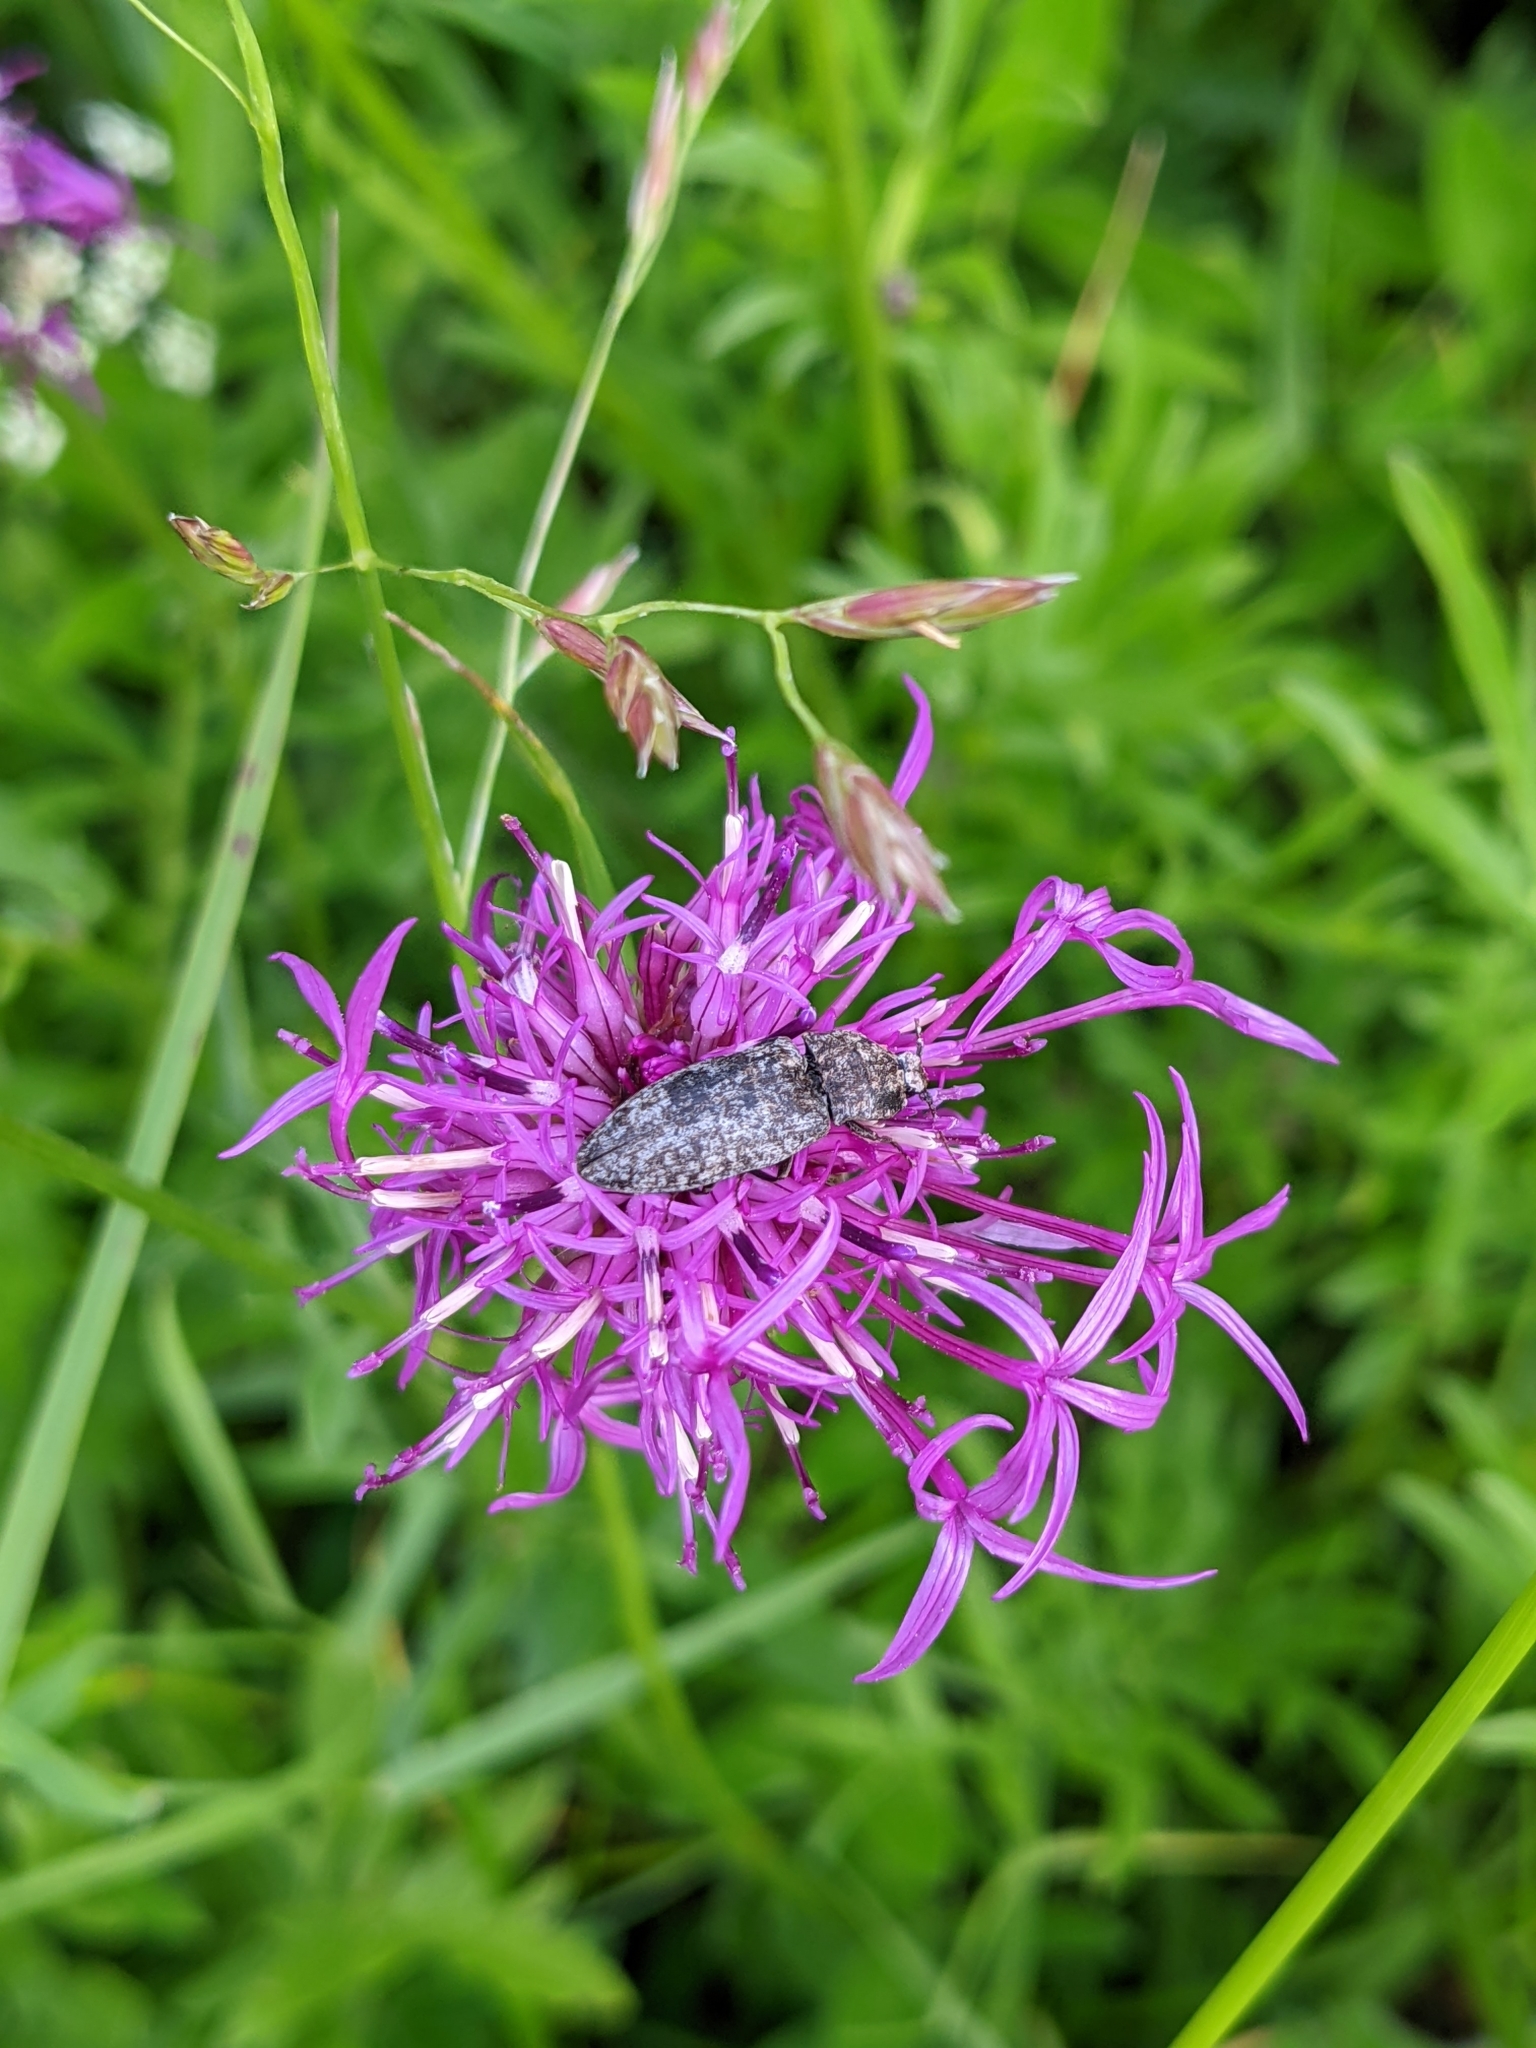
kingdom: Animalia
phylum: Arthropoda
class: Insecta
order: Coleoptera
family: Elateridae
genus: Agrypnus
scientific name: Agrypnus murinus
